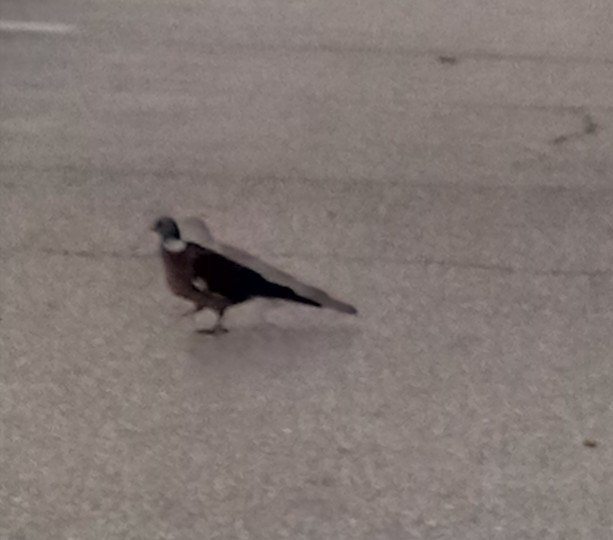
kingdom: Animalia
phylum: Chordata
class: Aves
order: Columbiformes
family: Columbidae
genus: Columba
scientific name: Columba palumbus
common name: Common wood pigeon
